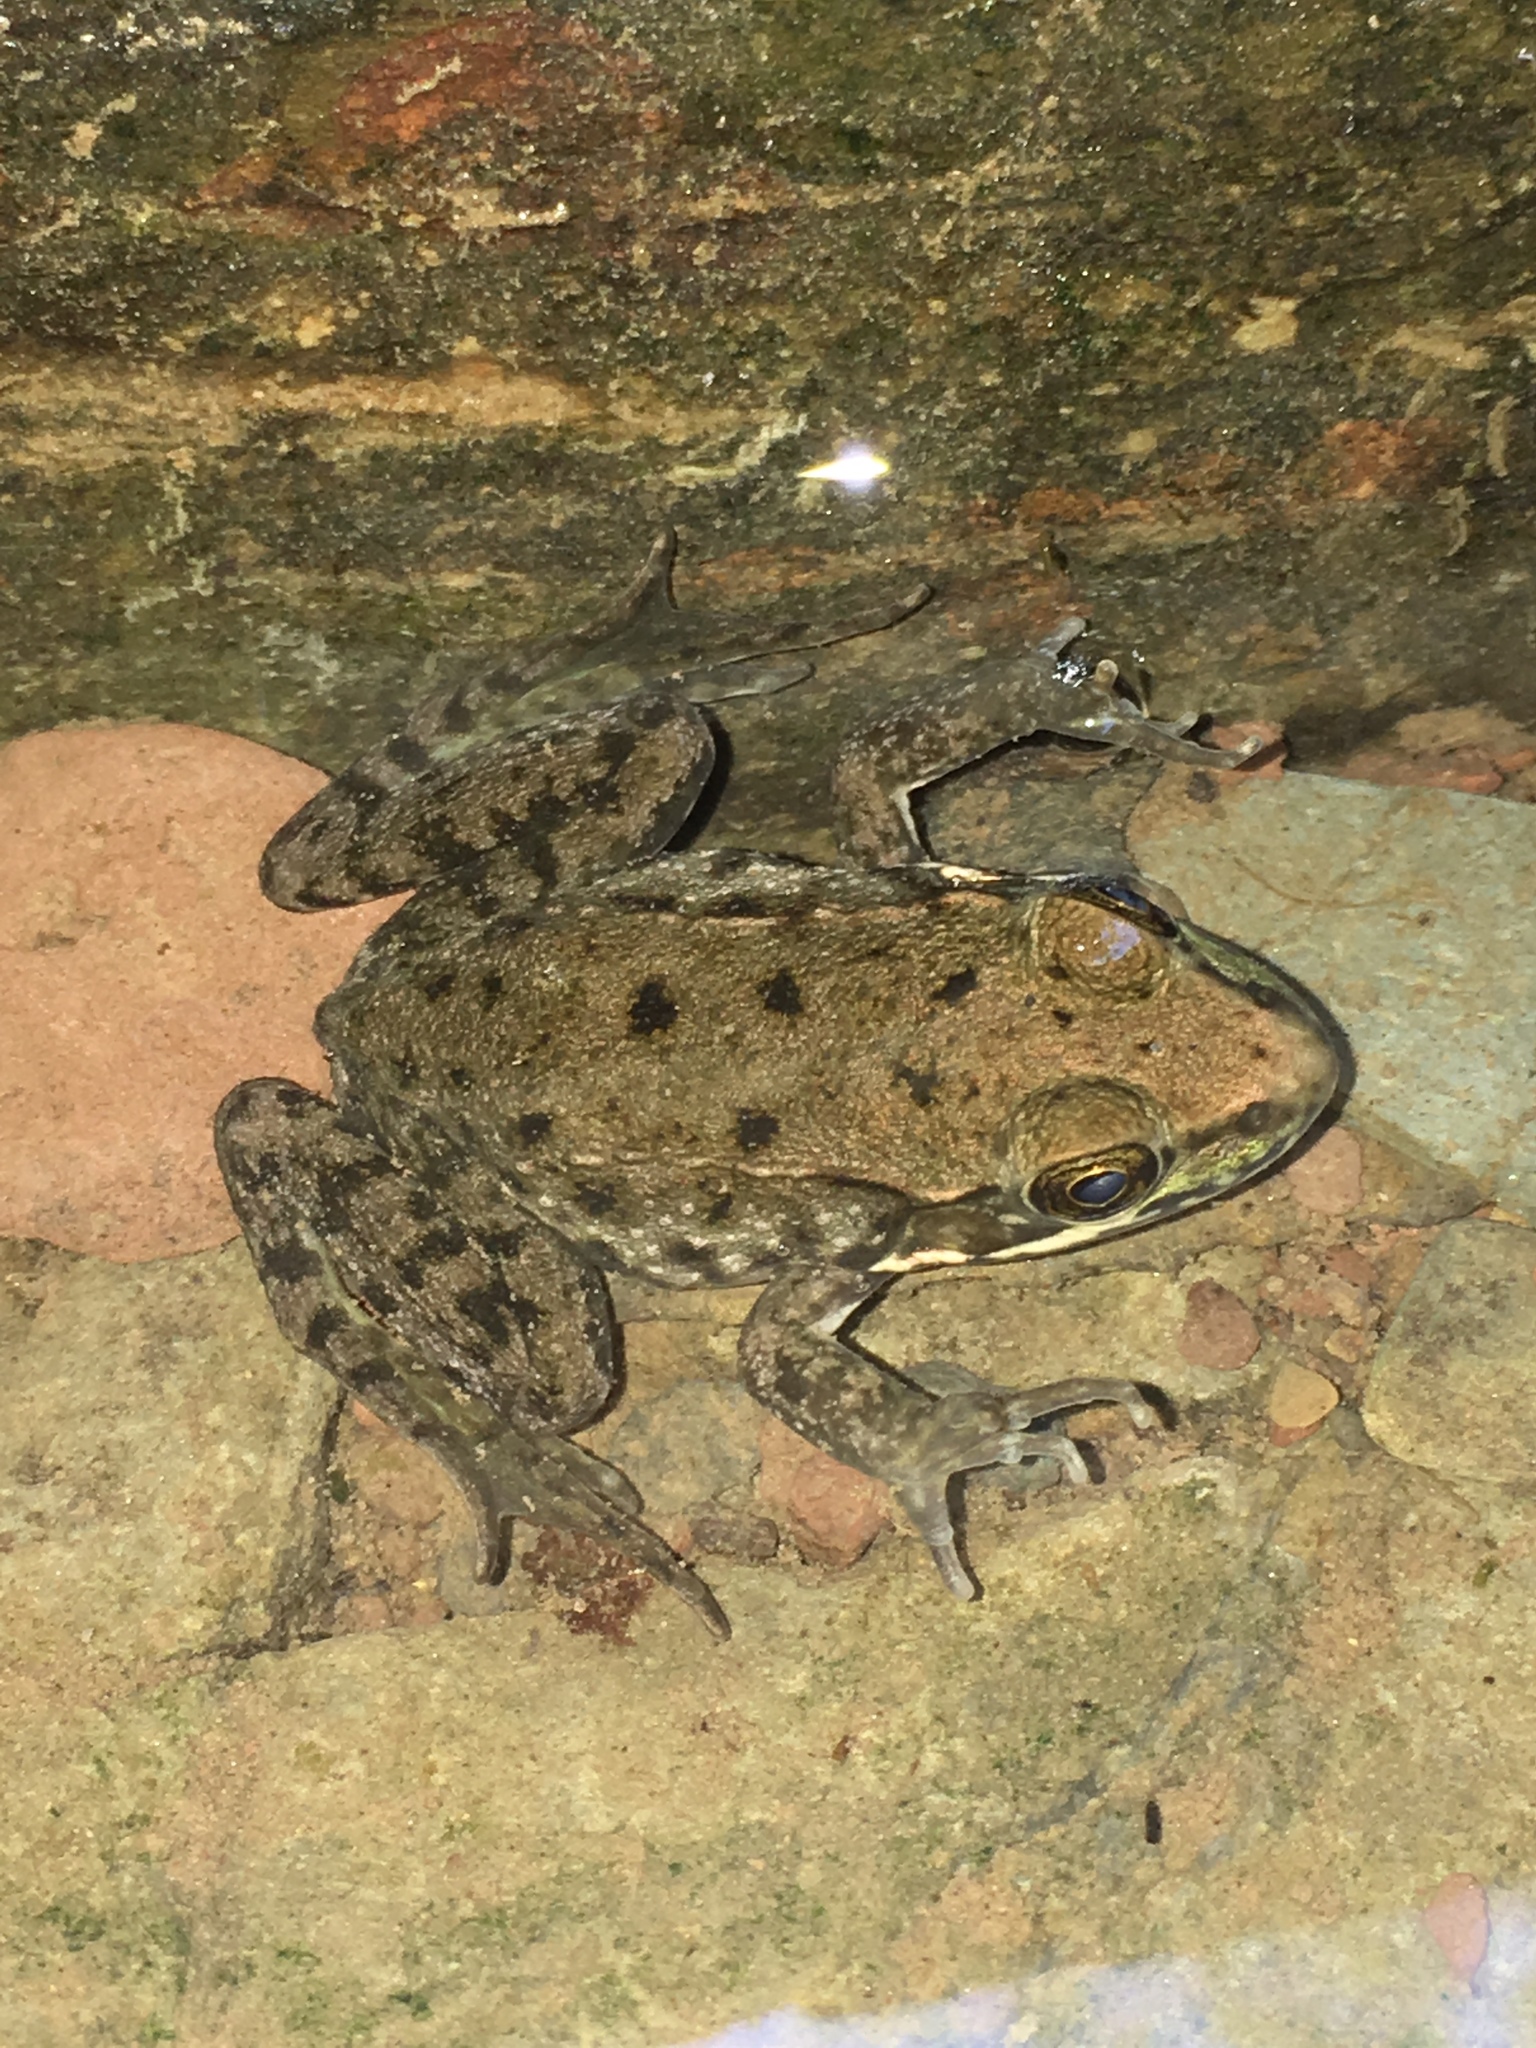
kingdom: Animalia
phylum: Chordata
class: Amphibia
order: Anura
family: Ranidae
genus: Lithobates
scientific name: Lithobates clamitans
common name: Green frog
